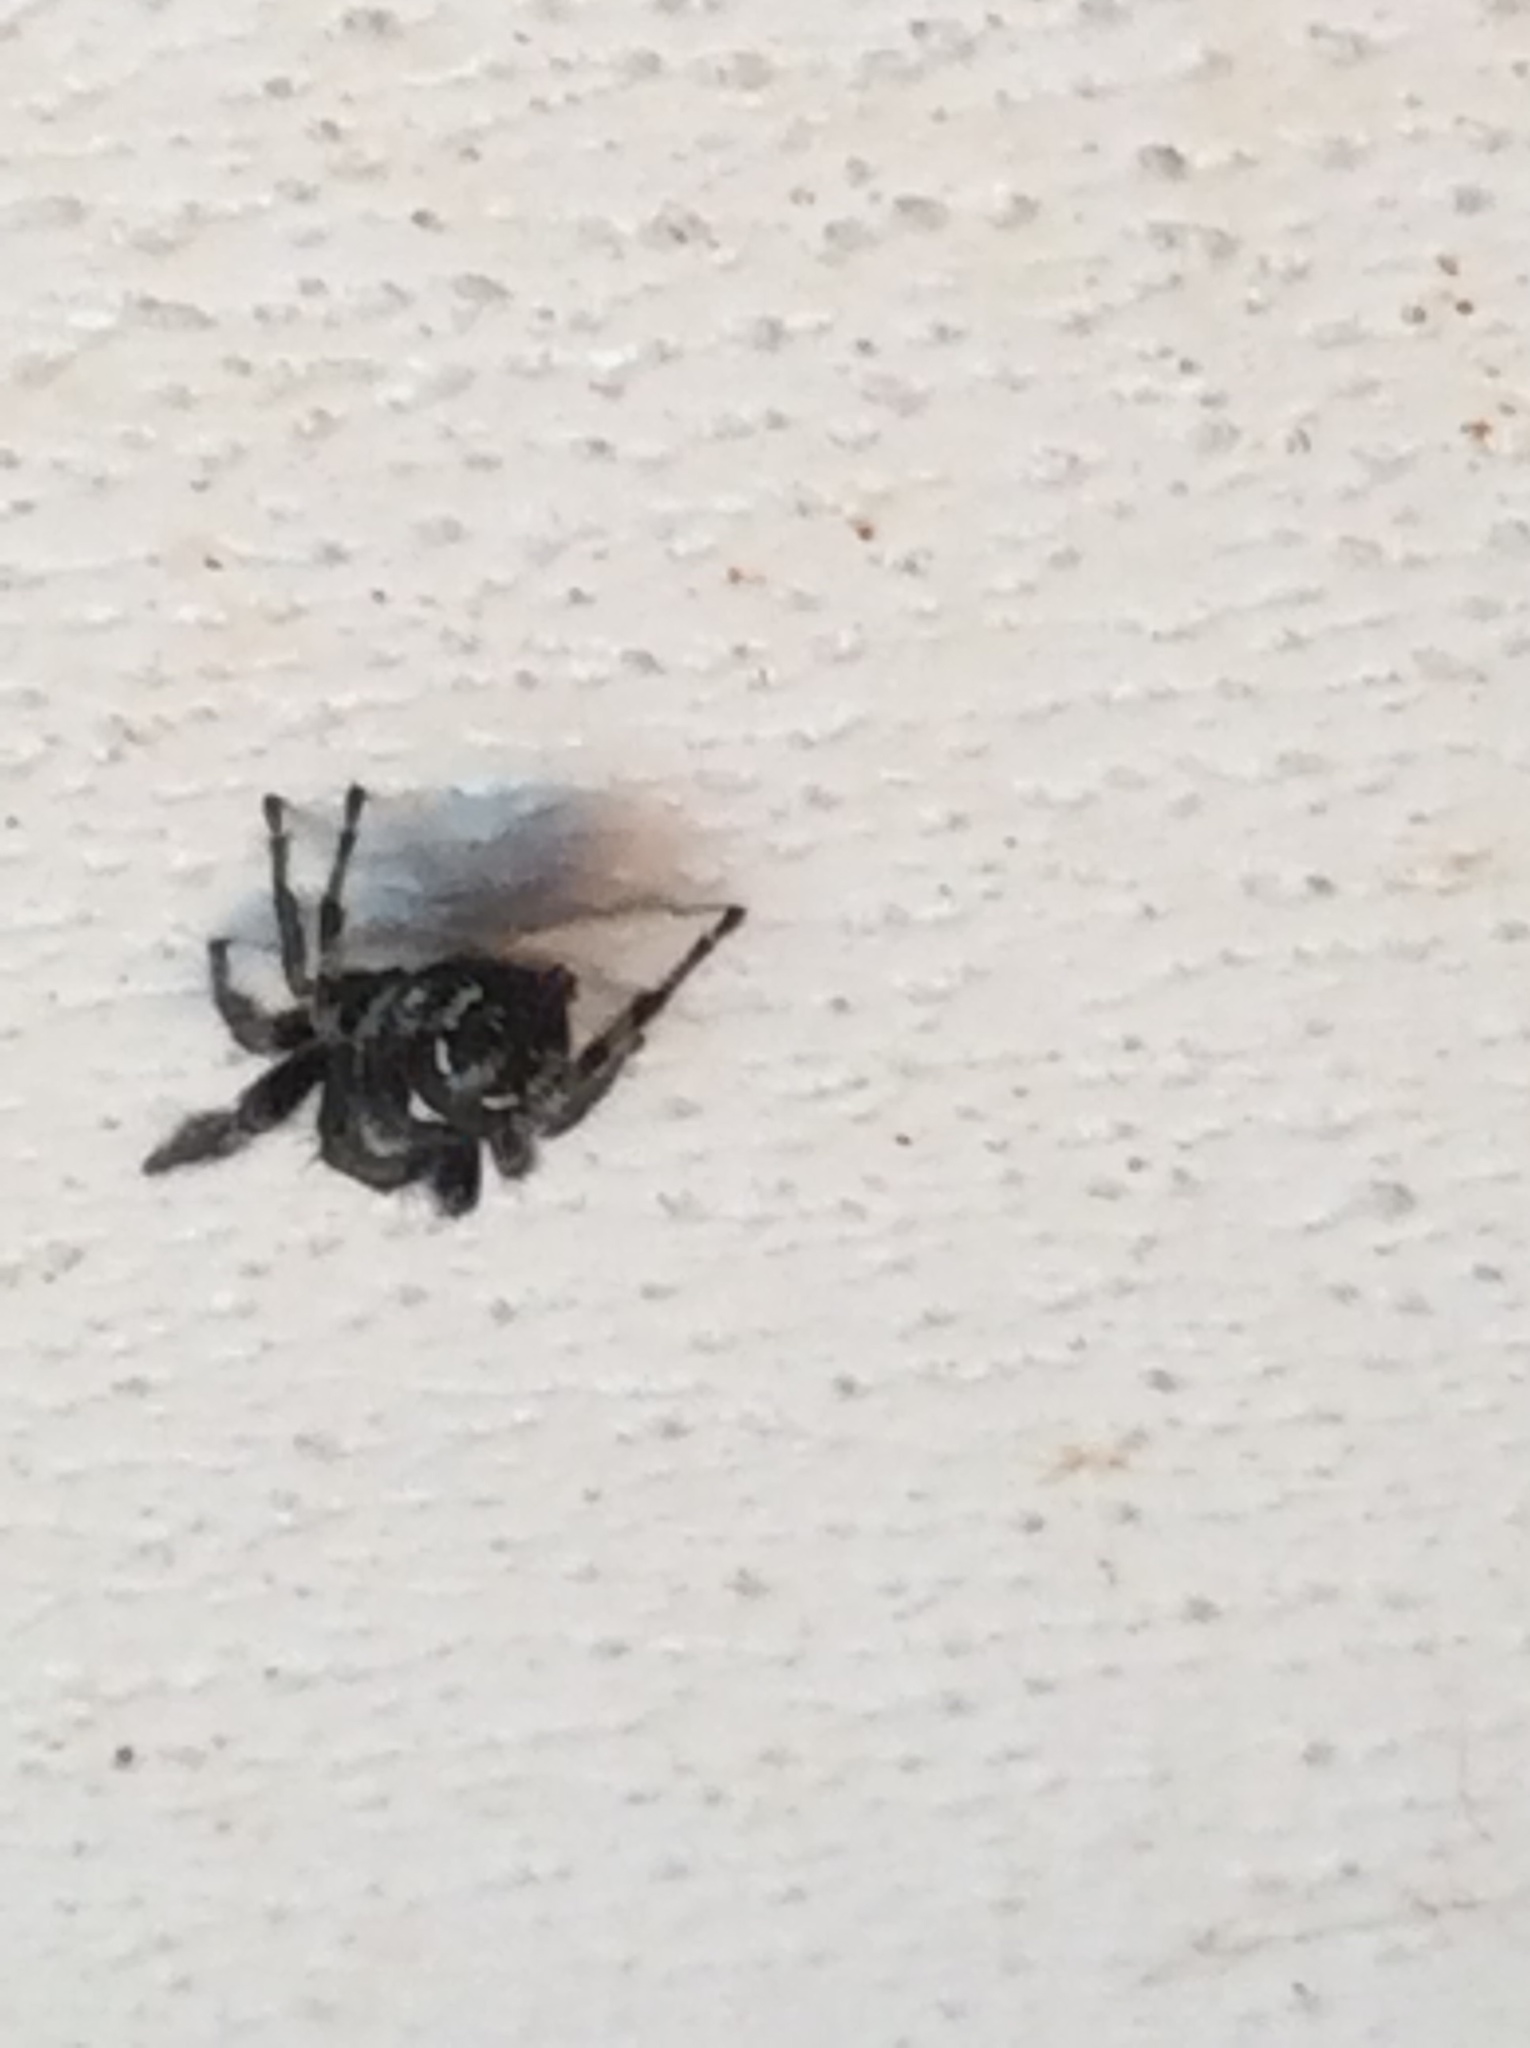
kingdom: Animalia
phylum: Arthropoda
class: Arachnida
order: Araneae
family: Salticidae
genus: Phidippus
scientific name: Phidippus audax
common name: Bold jumper
